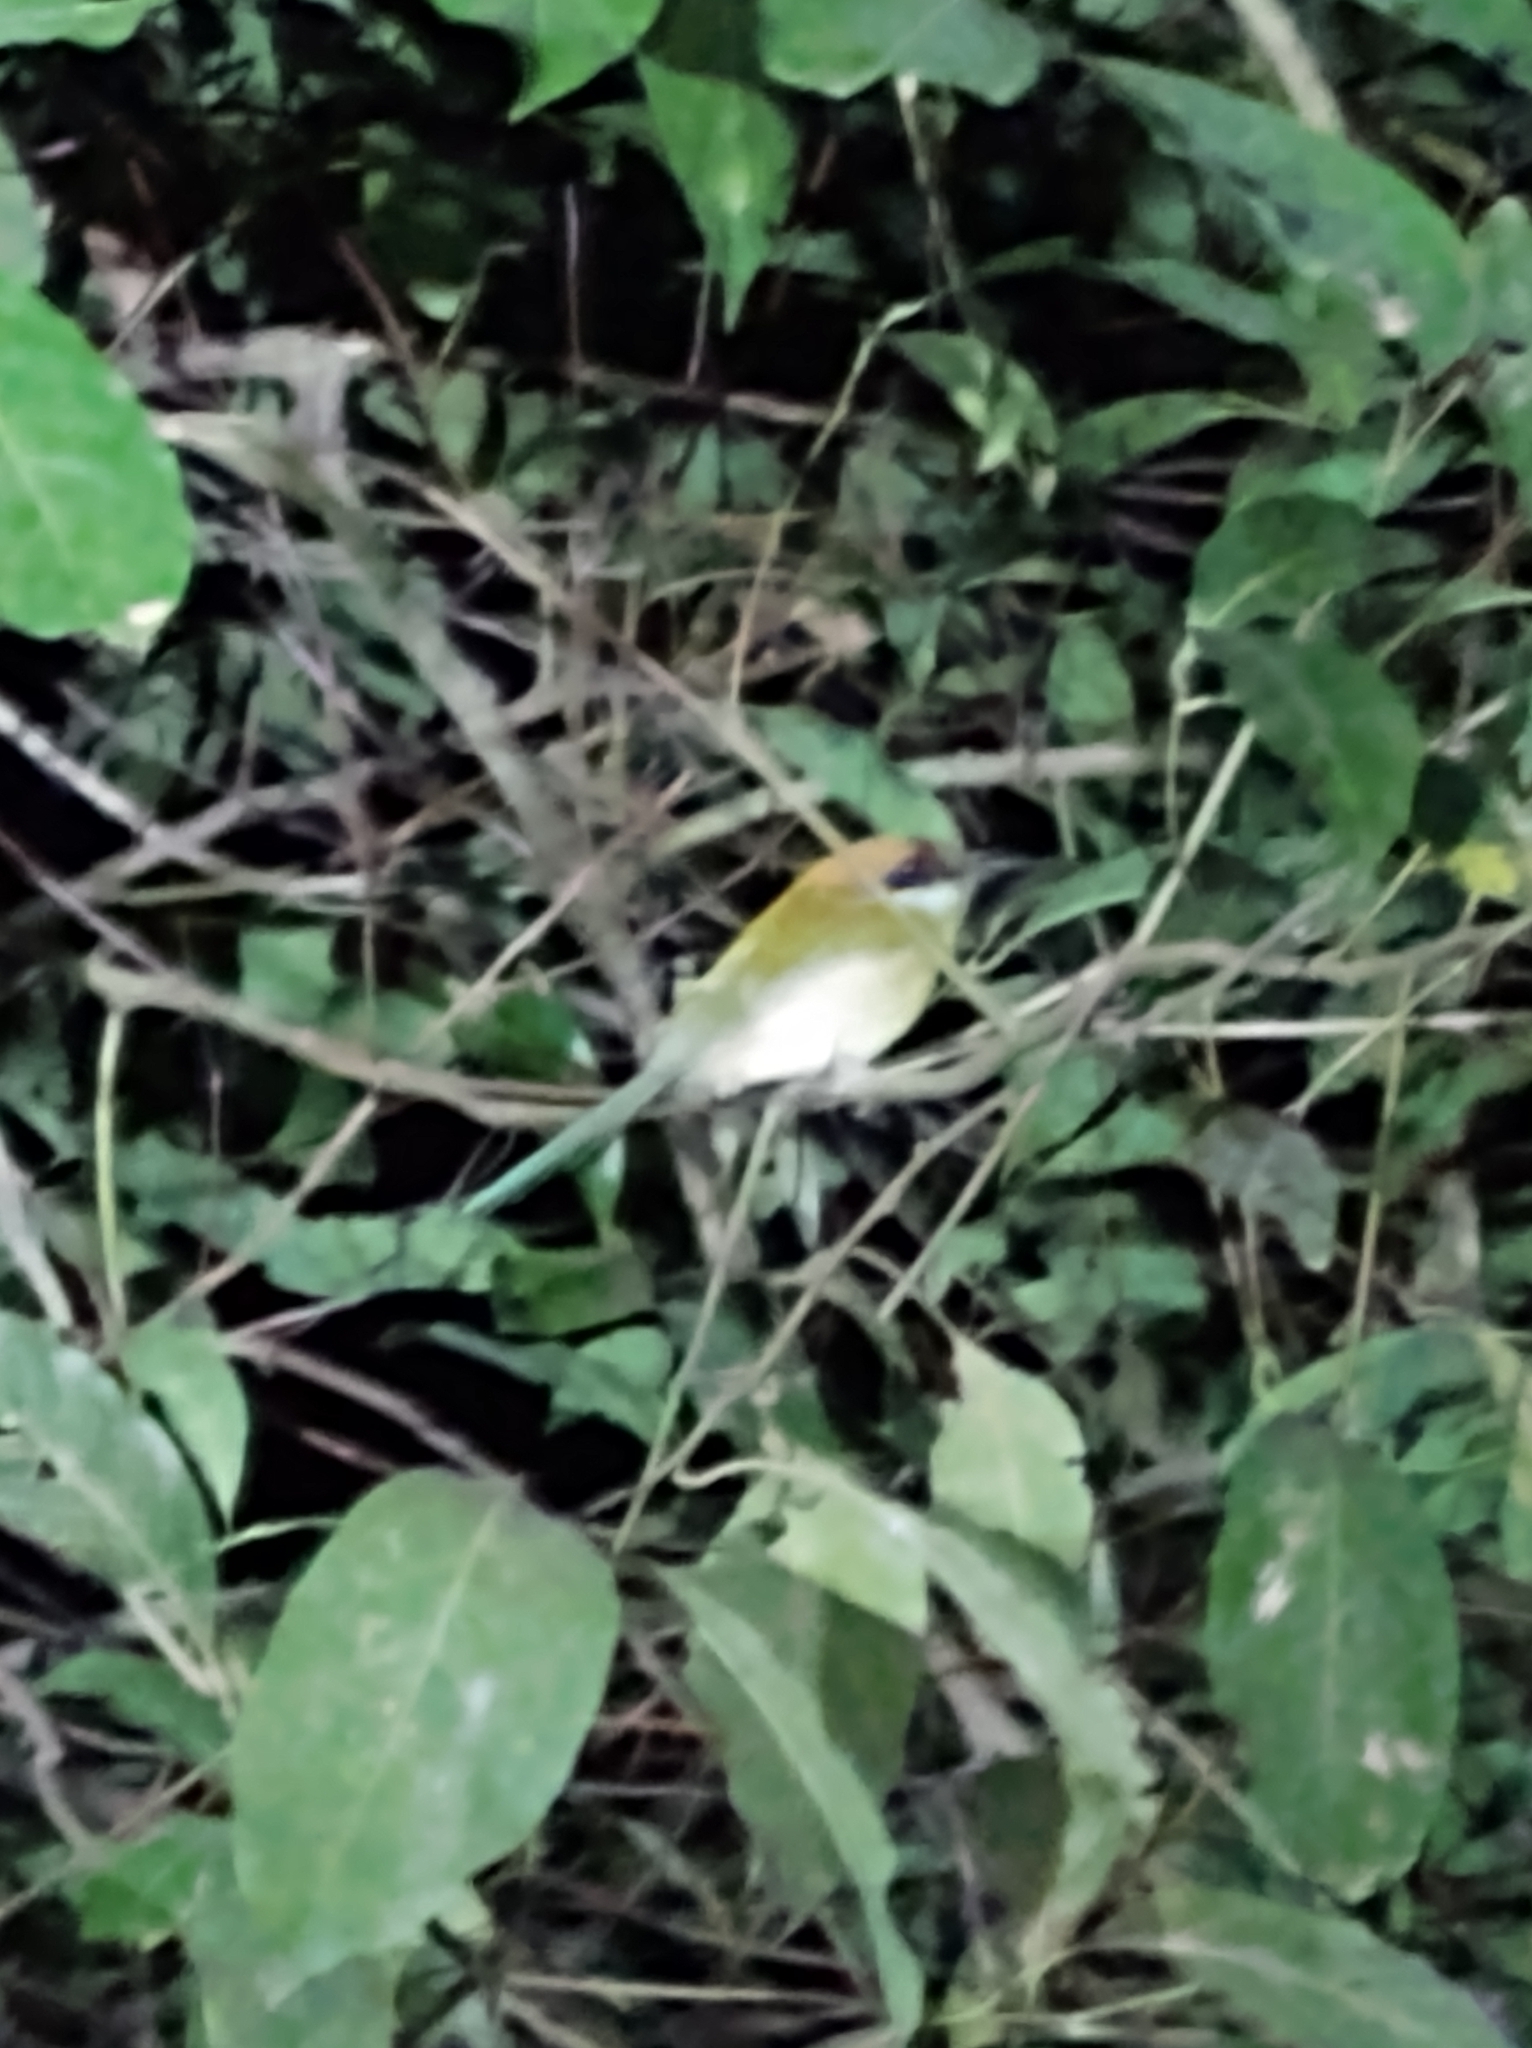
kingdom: Animalia
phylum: Chordata
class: Aves
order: Coraciiformes
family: Momotidae
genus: Momotus
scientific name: Momotus mexicanus
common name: Russet-crowned motmot
